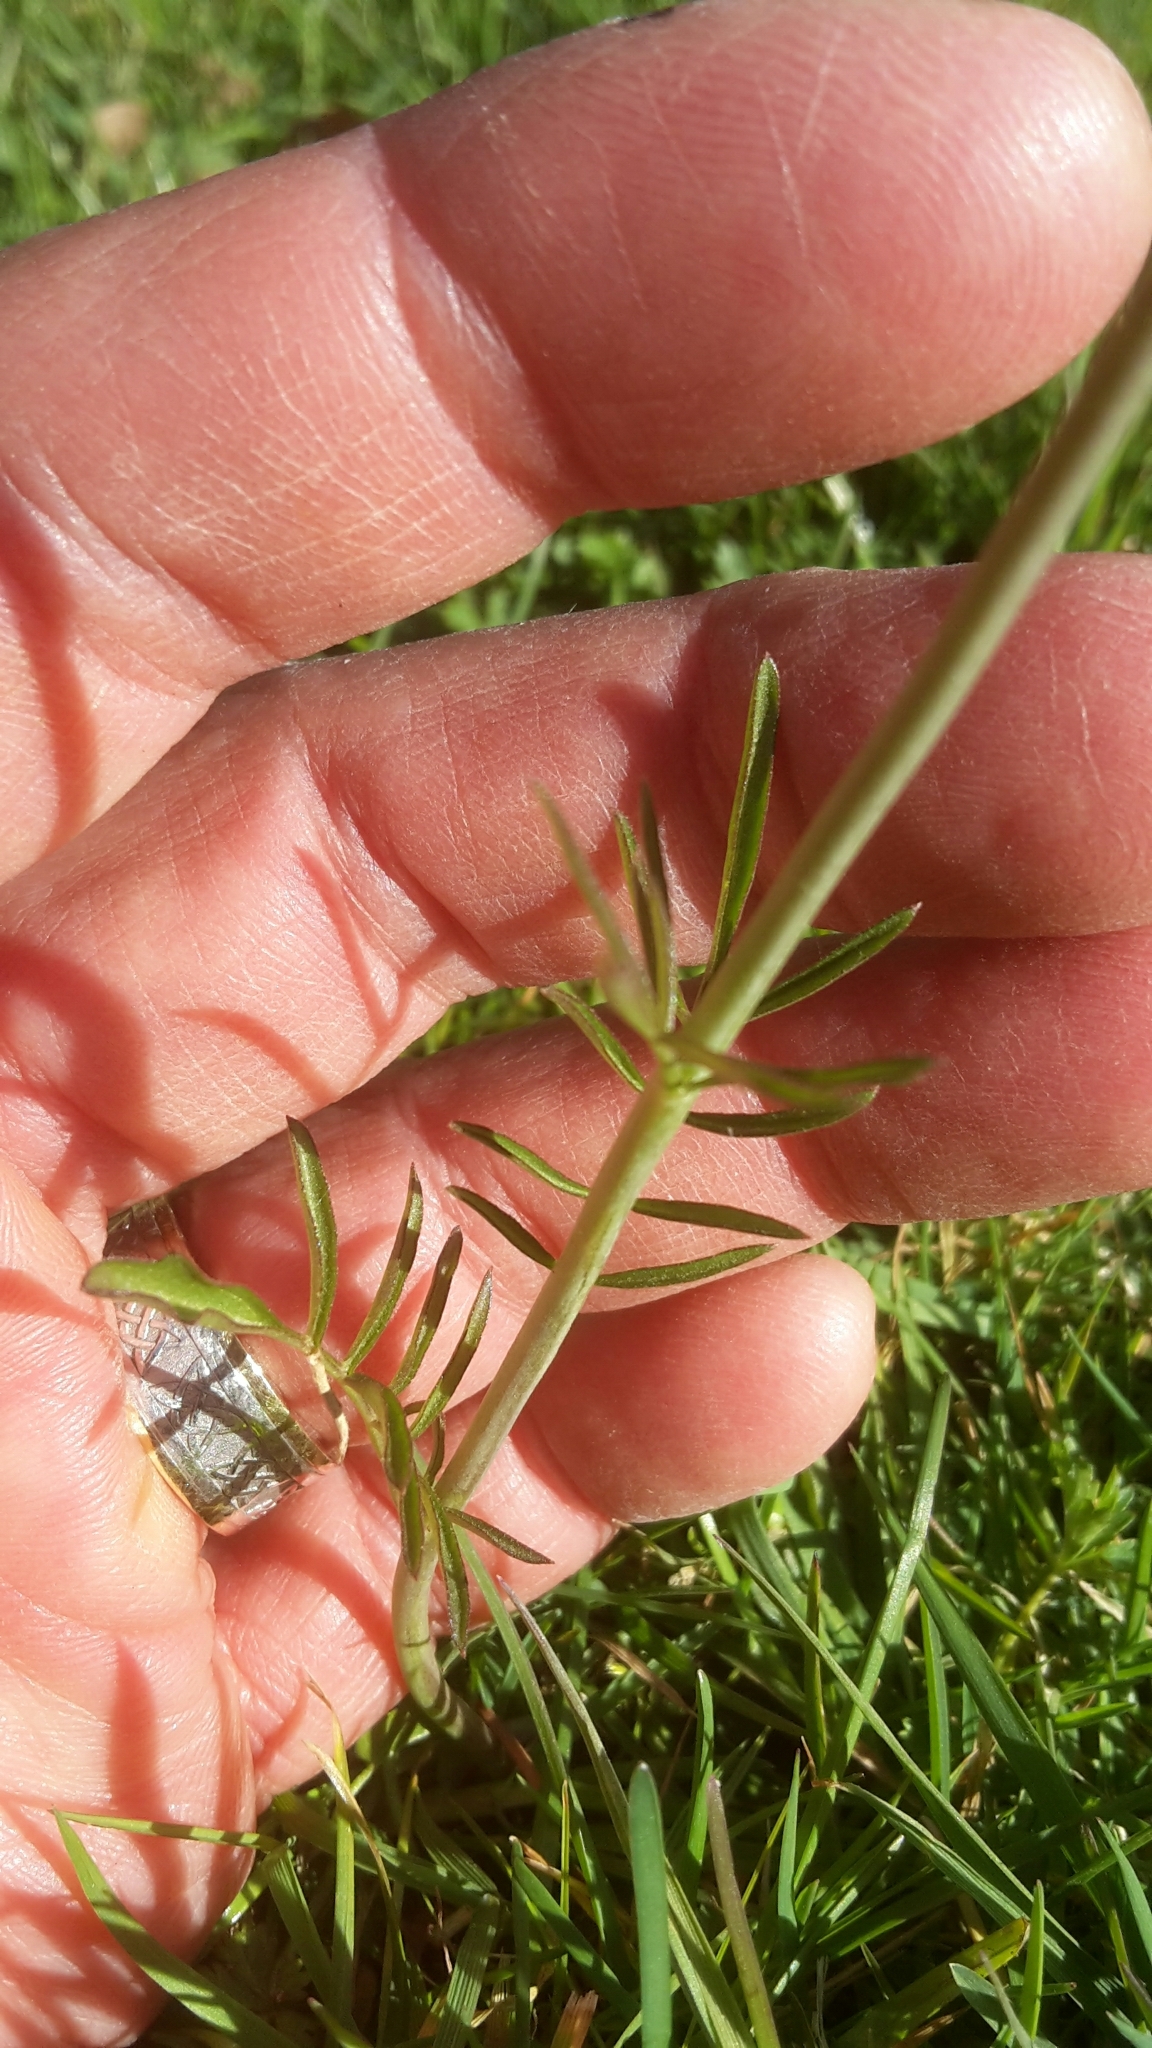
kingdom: Plantae
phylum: Tracheophyta
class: Magnoliopsida
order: Brassicales
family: Brassicaceae
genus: Cardamine
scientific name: Cardamine pratensis
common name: Cuckoo flower
